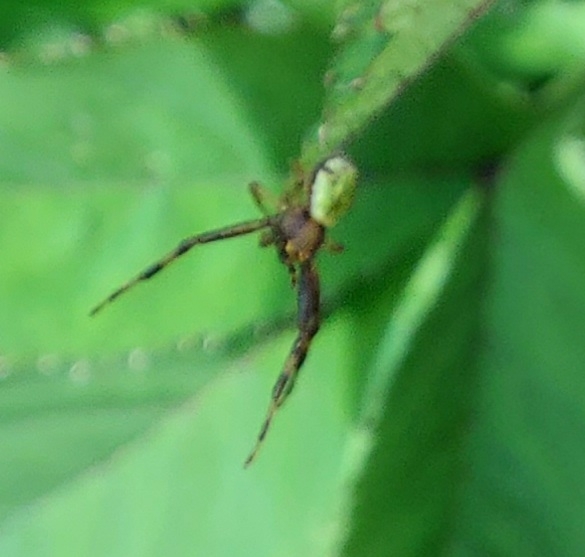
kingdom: Animalia
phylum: Arthropoda
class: Arachnida
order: Araneae
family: Thomisidae
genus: Ebrechtella
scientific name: Ebrechtella tricuspidata
